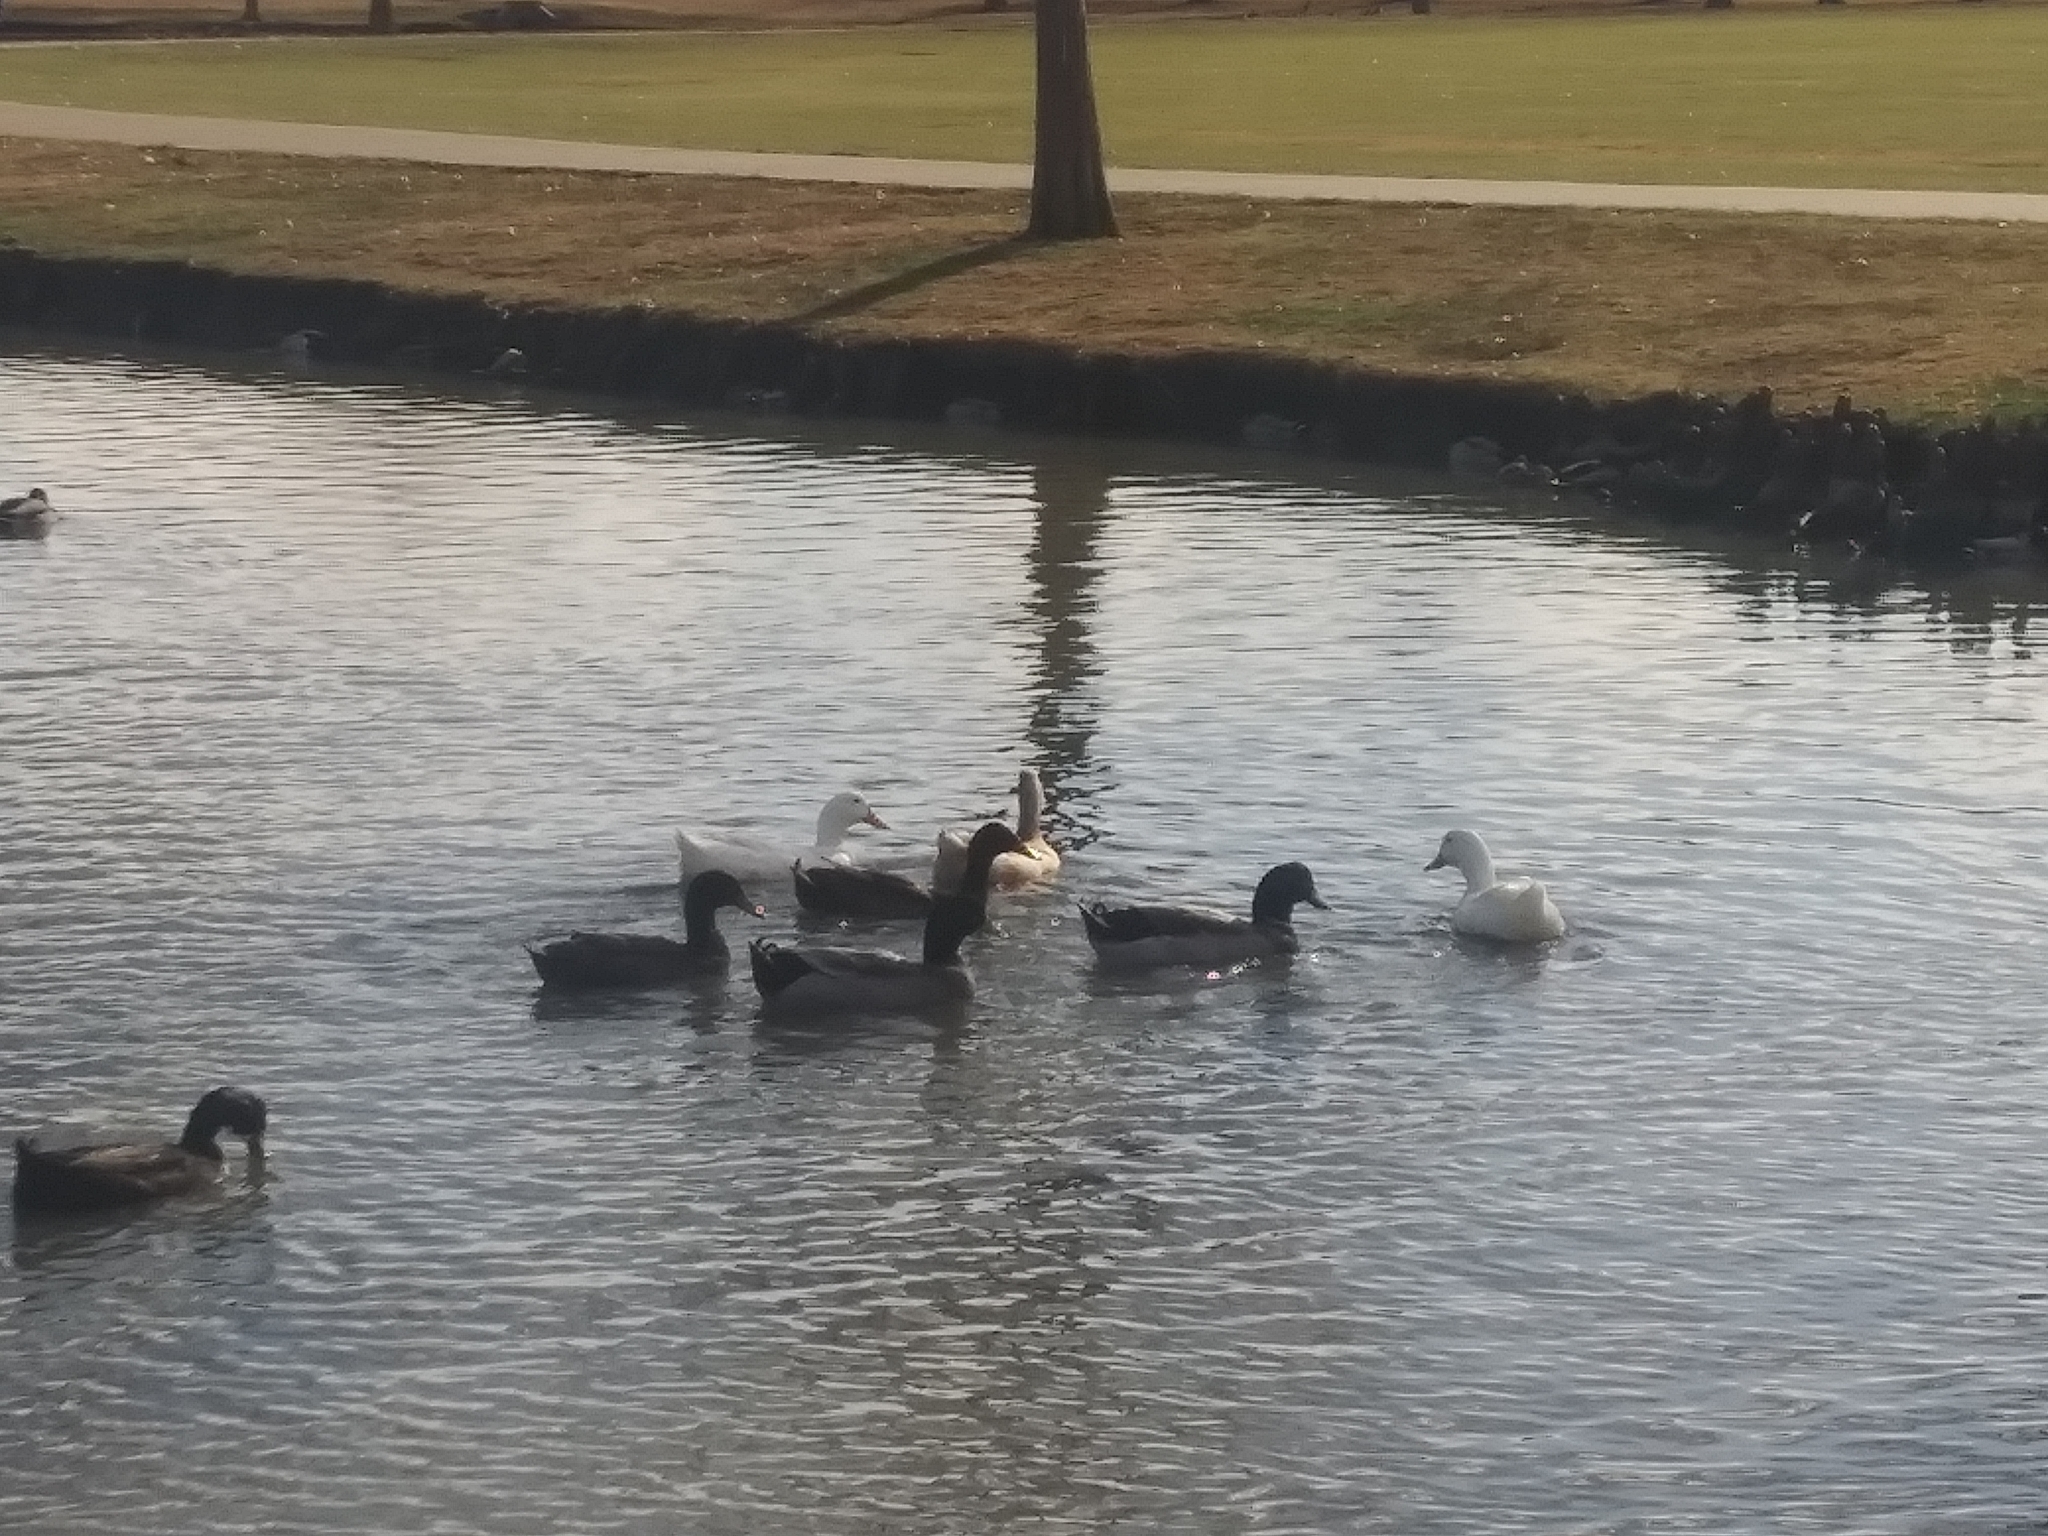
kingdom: Animalia
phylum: Chordata
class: Aves
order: Anseriformes
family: Anatidae
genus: Anas
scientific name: Anas platyrhynchos
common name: Mallard
